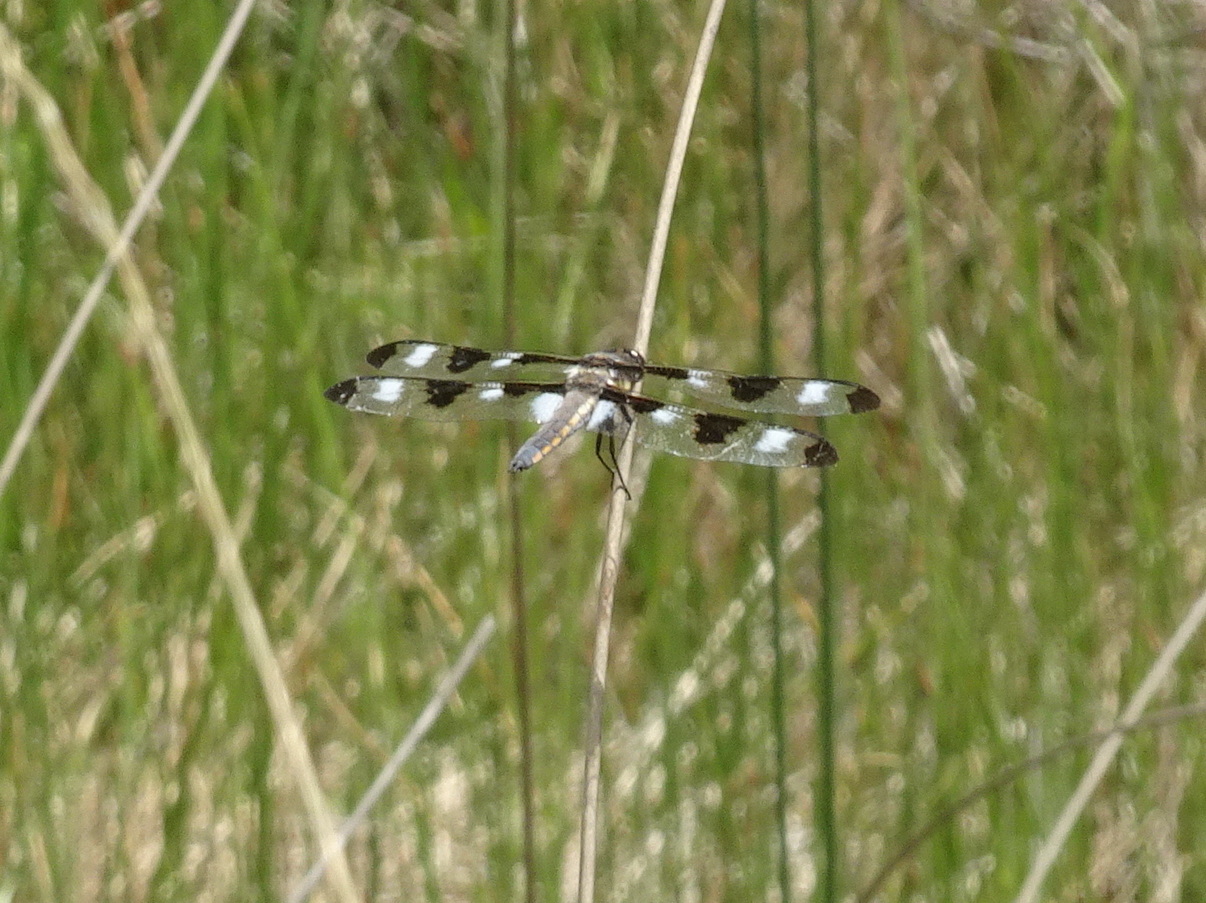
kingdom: Animalia
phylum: Arthropoda
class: Insecta
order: Odonata
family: Libellulidae
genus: Libellula
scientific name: Libellula pulchella
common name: Twelve-spotted skimmer
